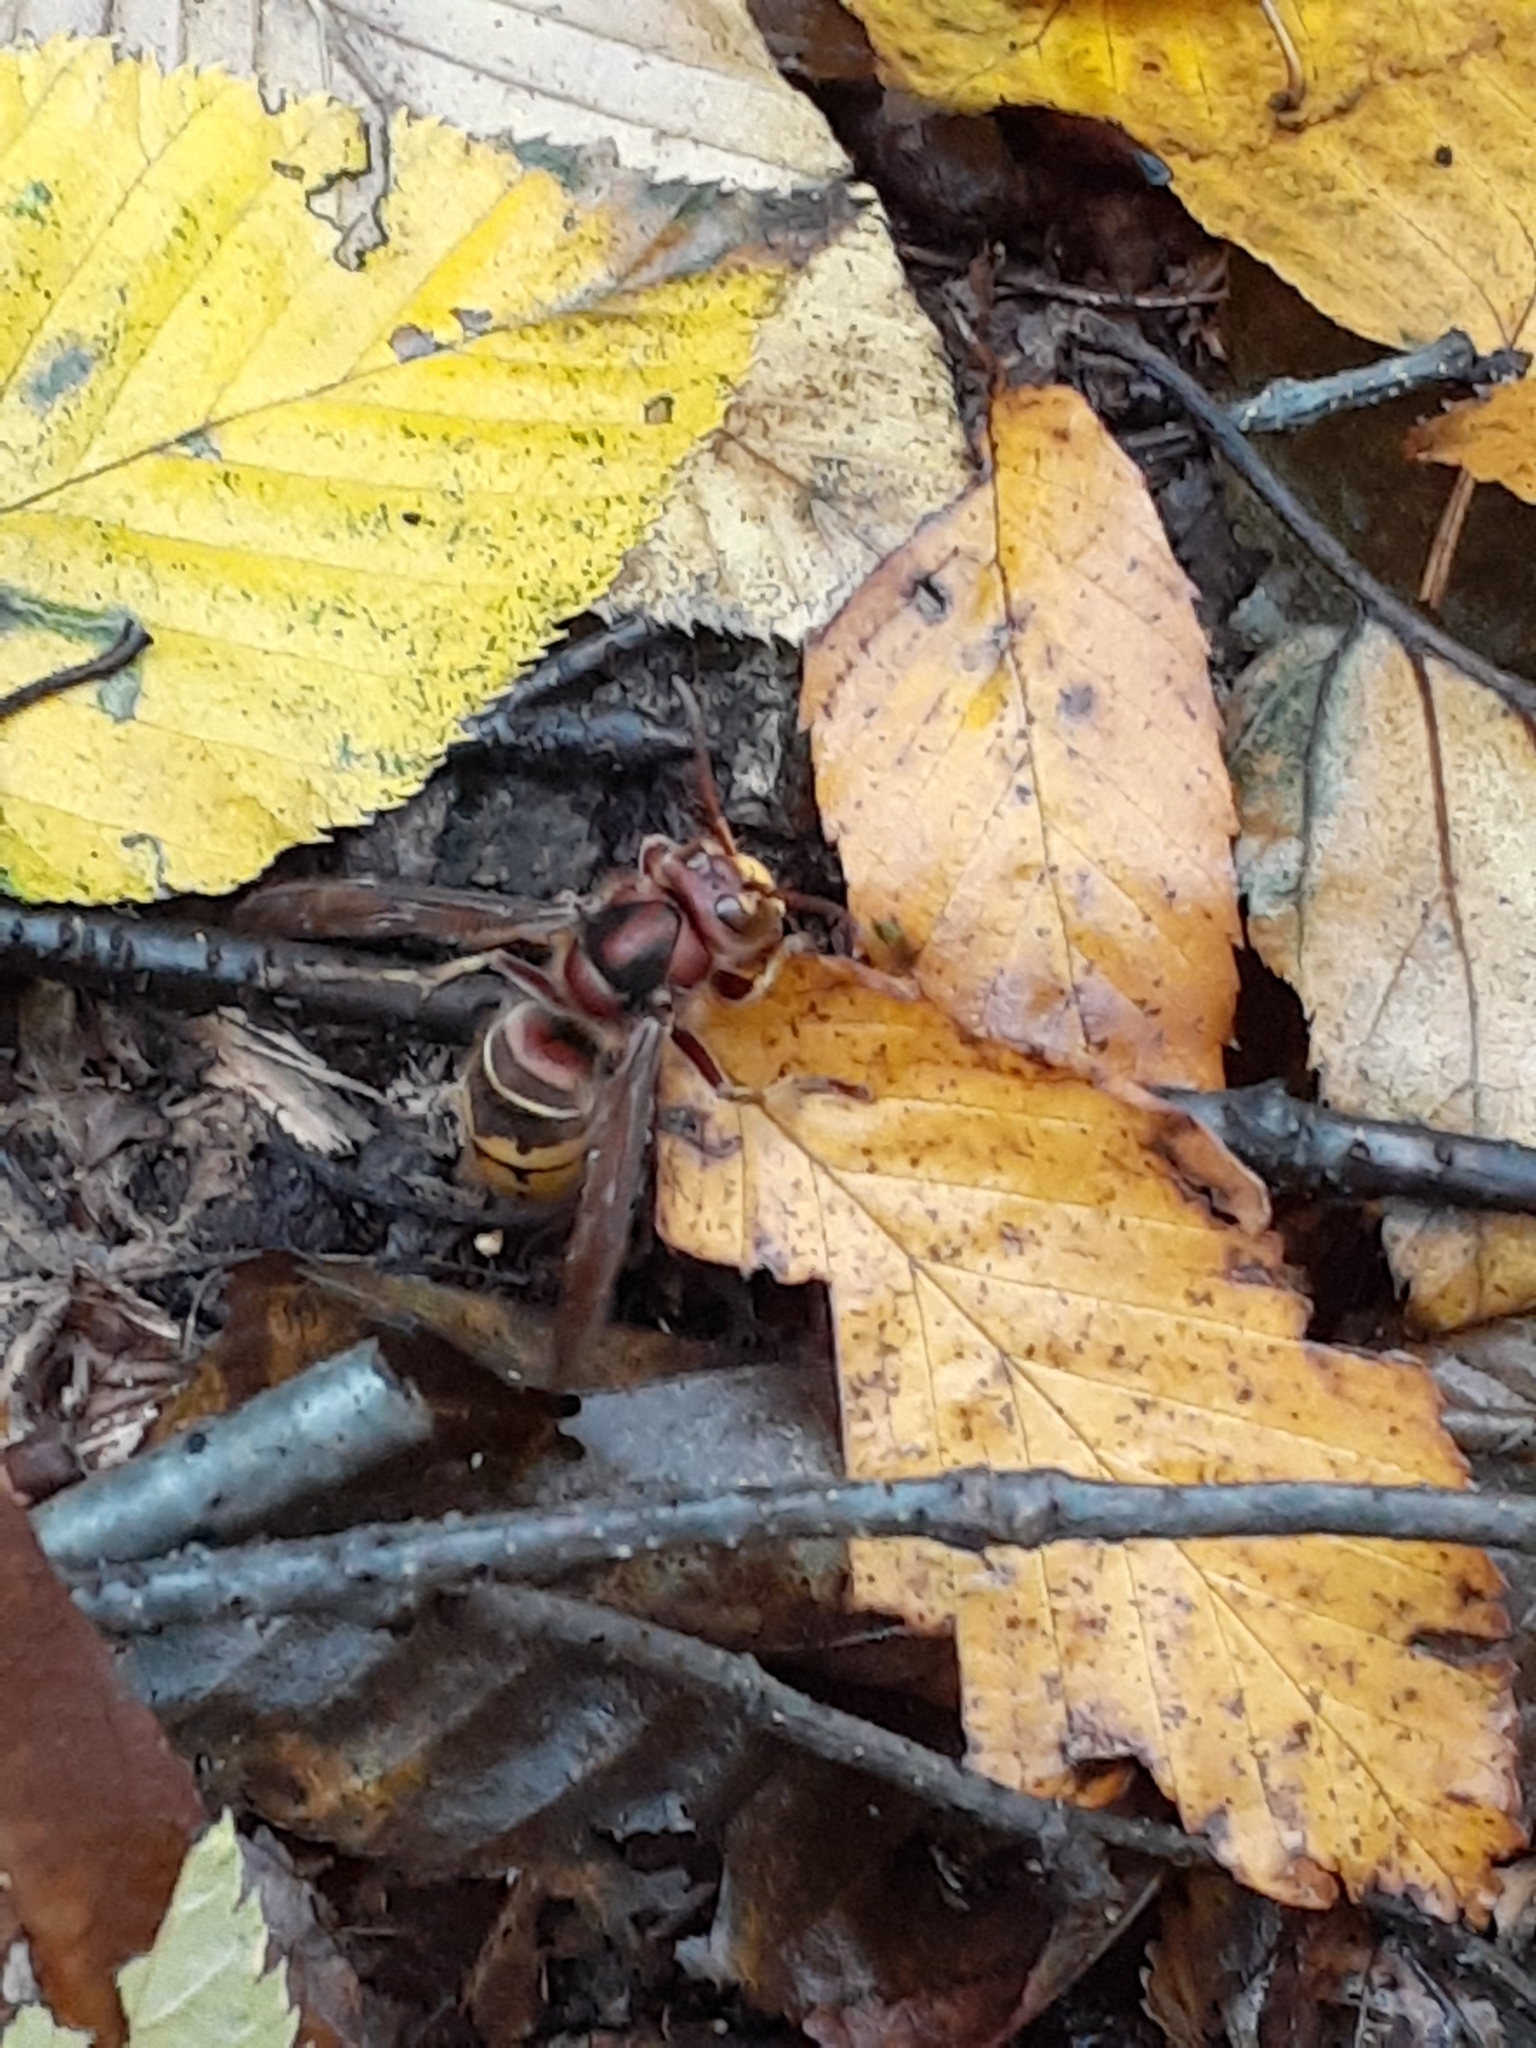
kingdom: Animalia
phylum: Arthropoda
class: Insecta
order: Hymenoptera
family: Vespidae
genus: Vespa
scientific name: Vespa crabro
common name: Hornet
